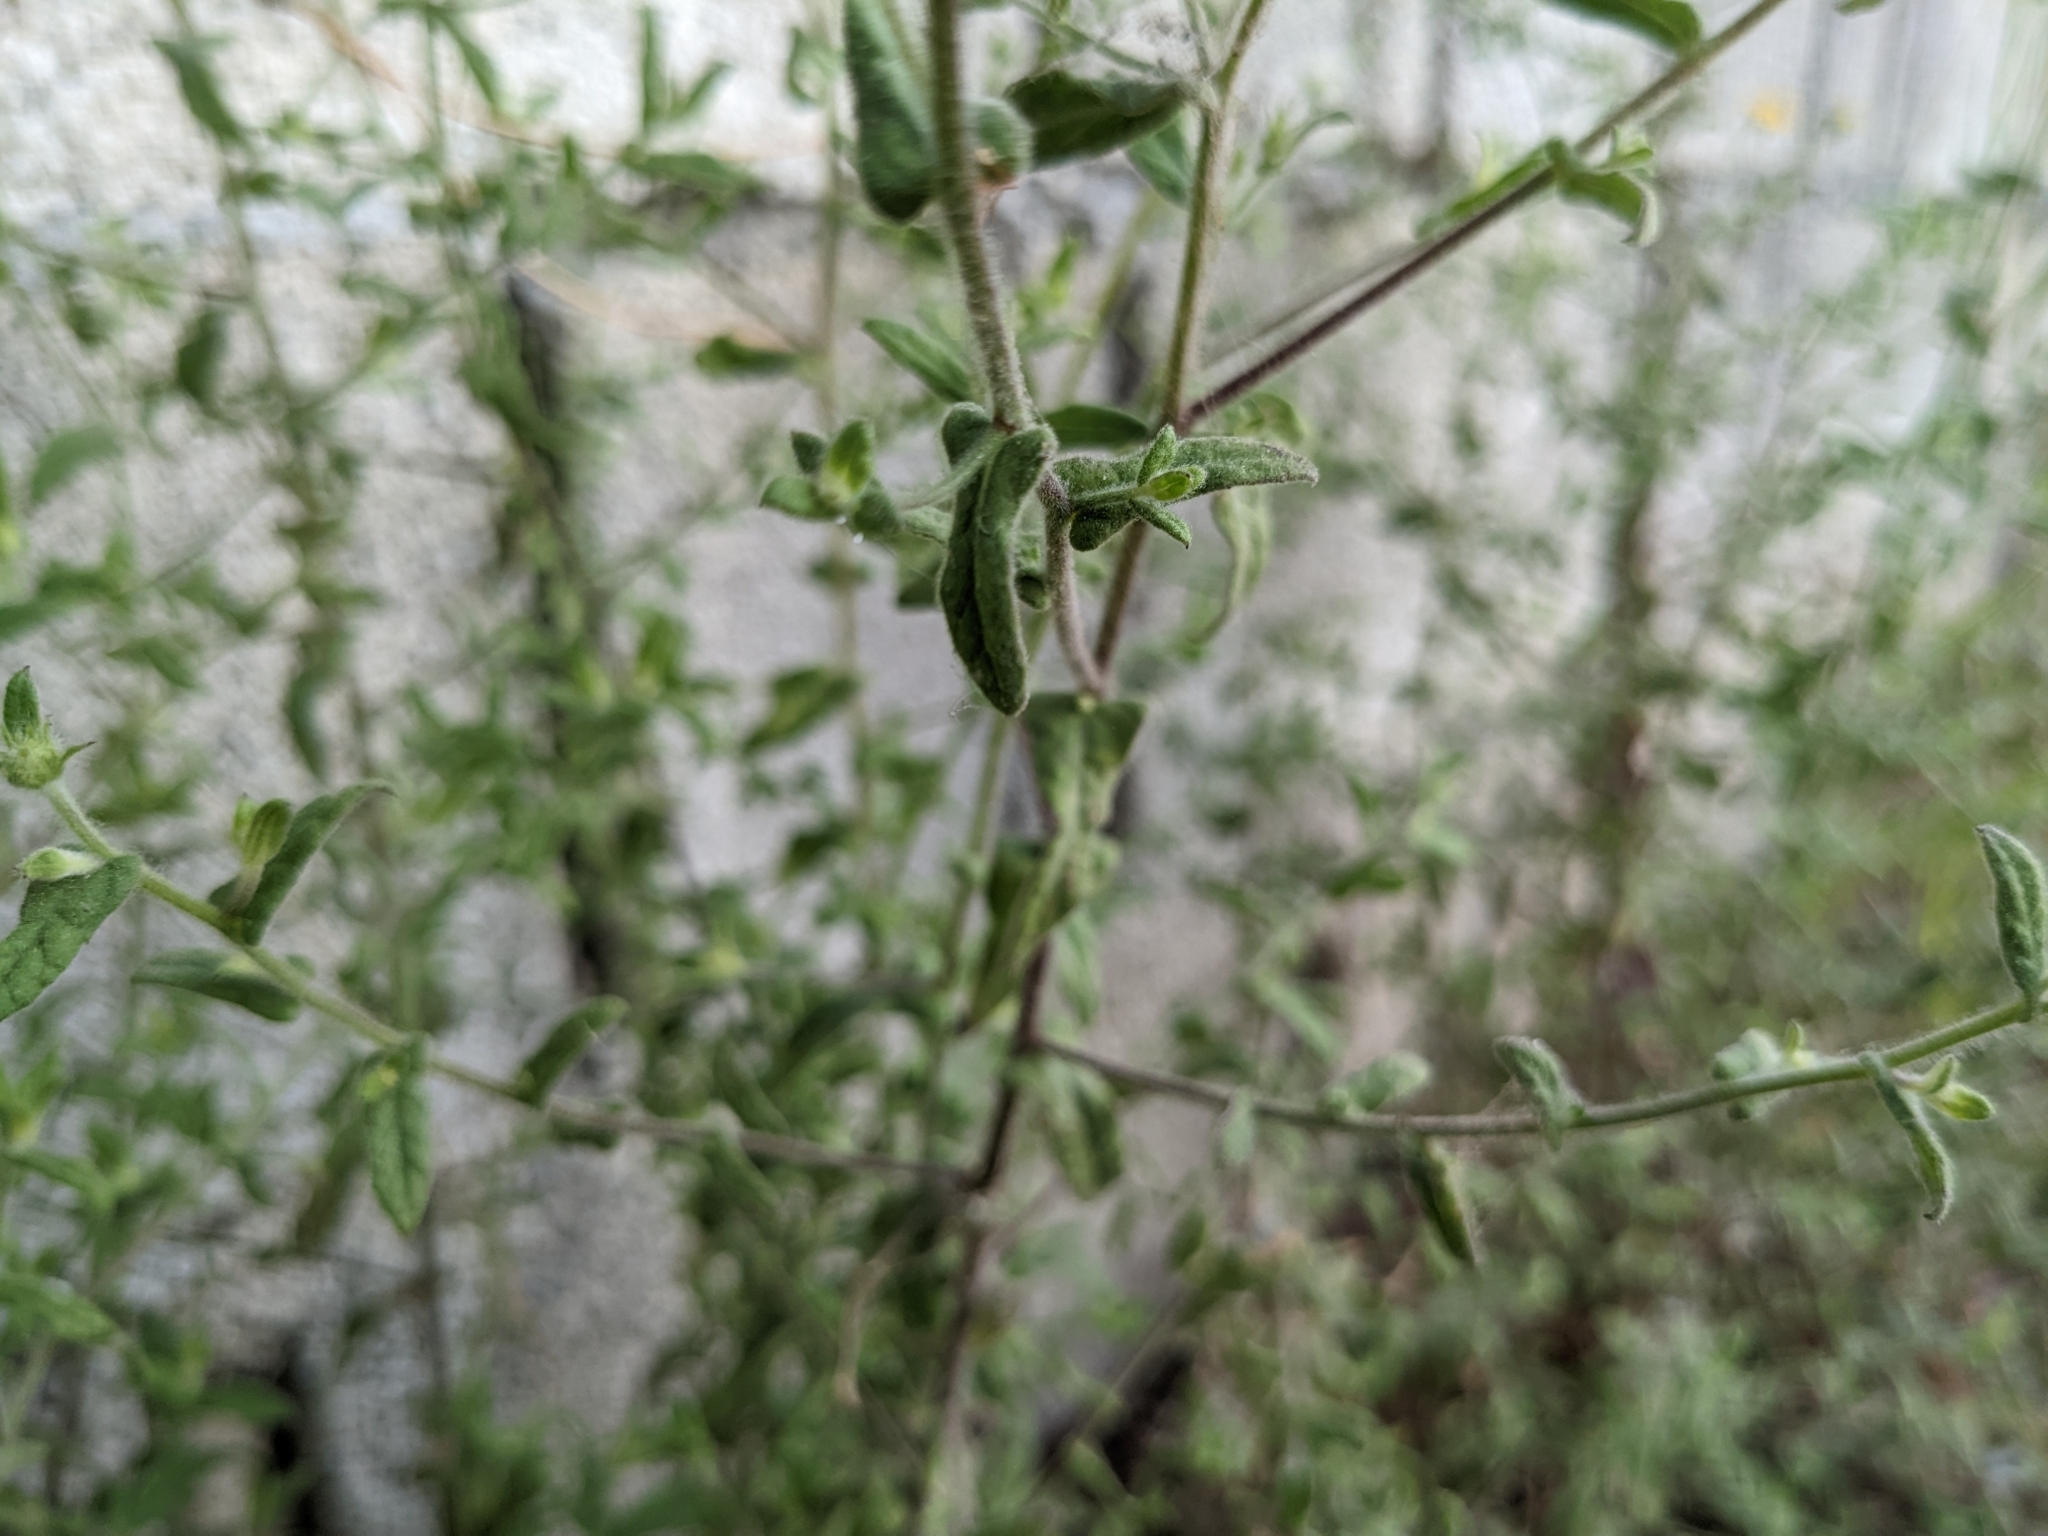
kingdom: Plantae
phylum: Tracheophyta
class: Magnoliopsida
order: Asterales
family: Asteraceae
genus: Pulicaria
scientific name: Pulicaria dysenterica
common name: Common fleabane
